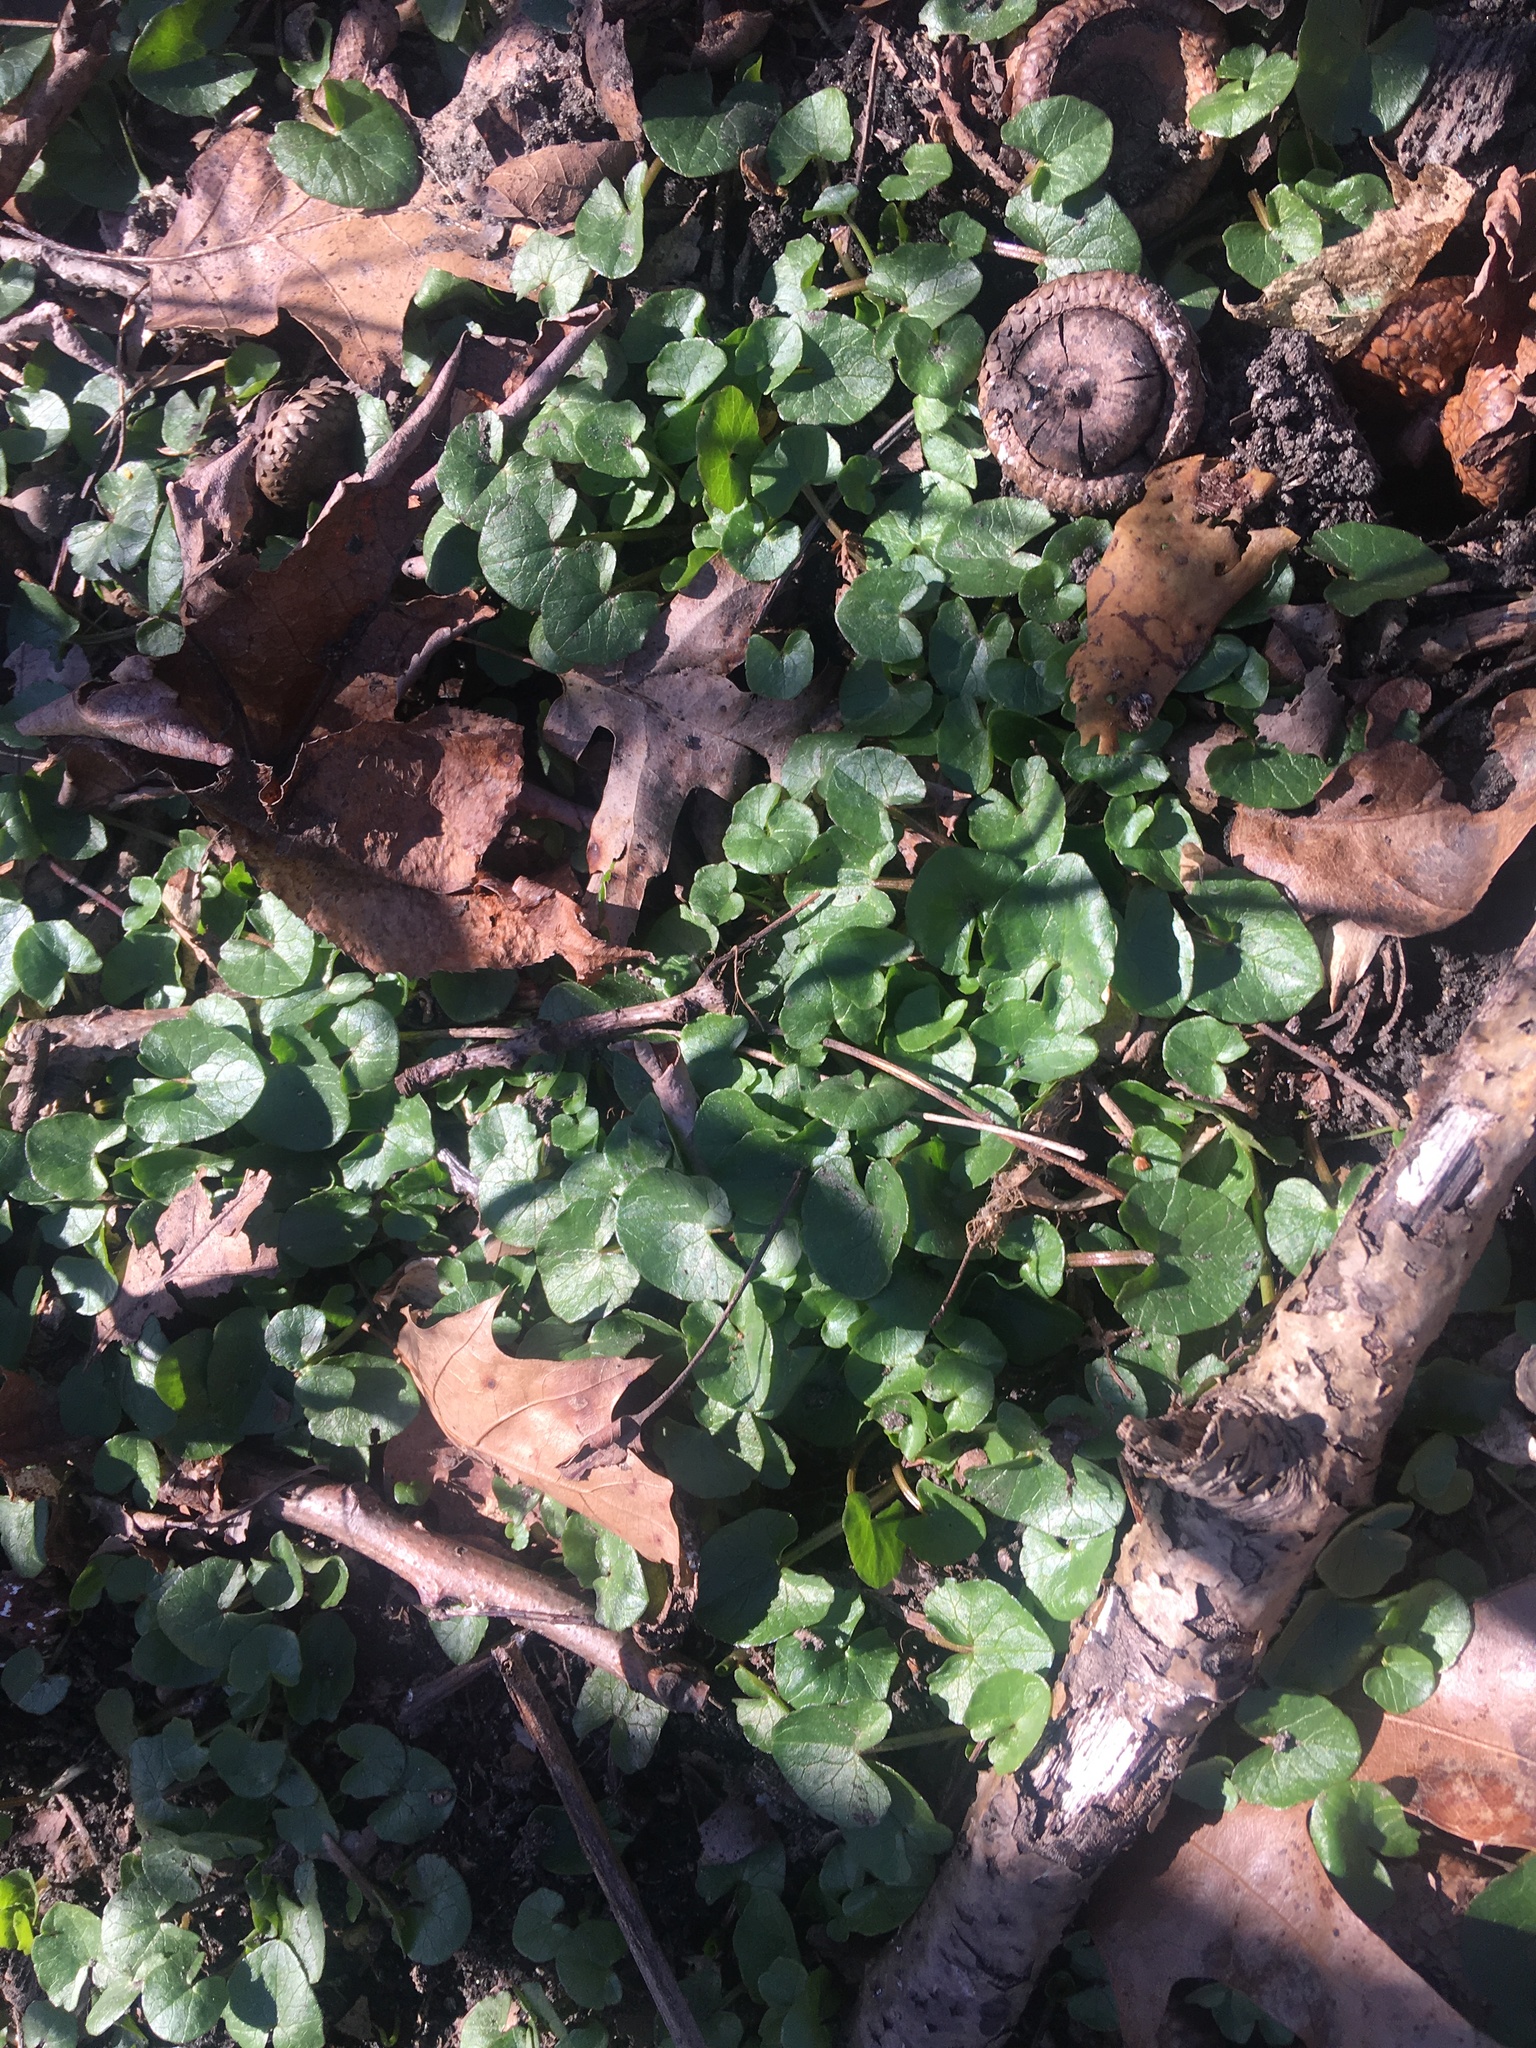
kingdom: Plantae
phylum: Tracheophyta
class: Magnoliopsida
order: Ranunculales
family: Ranunculaceae
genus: Ficaria
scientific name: Ficaria verna
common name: Lesser celandine
